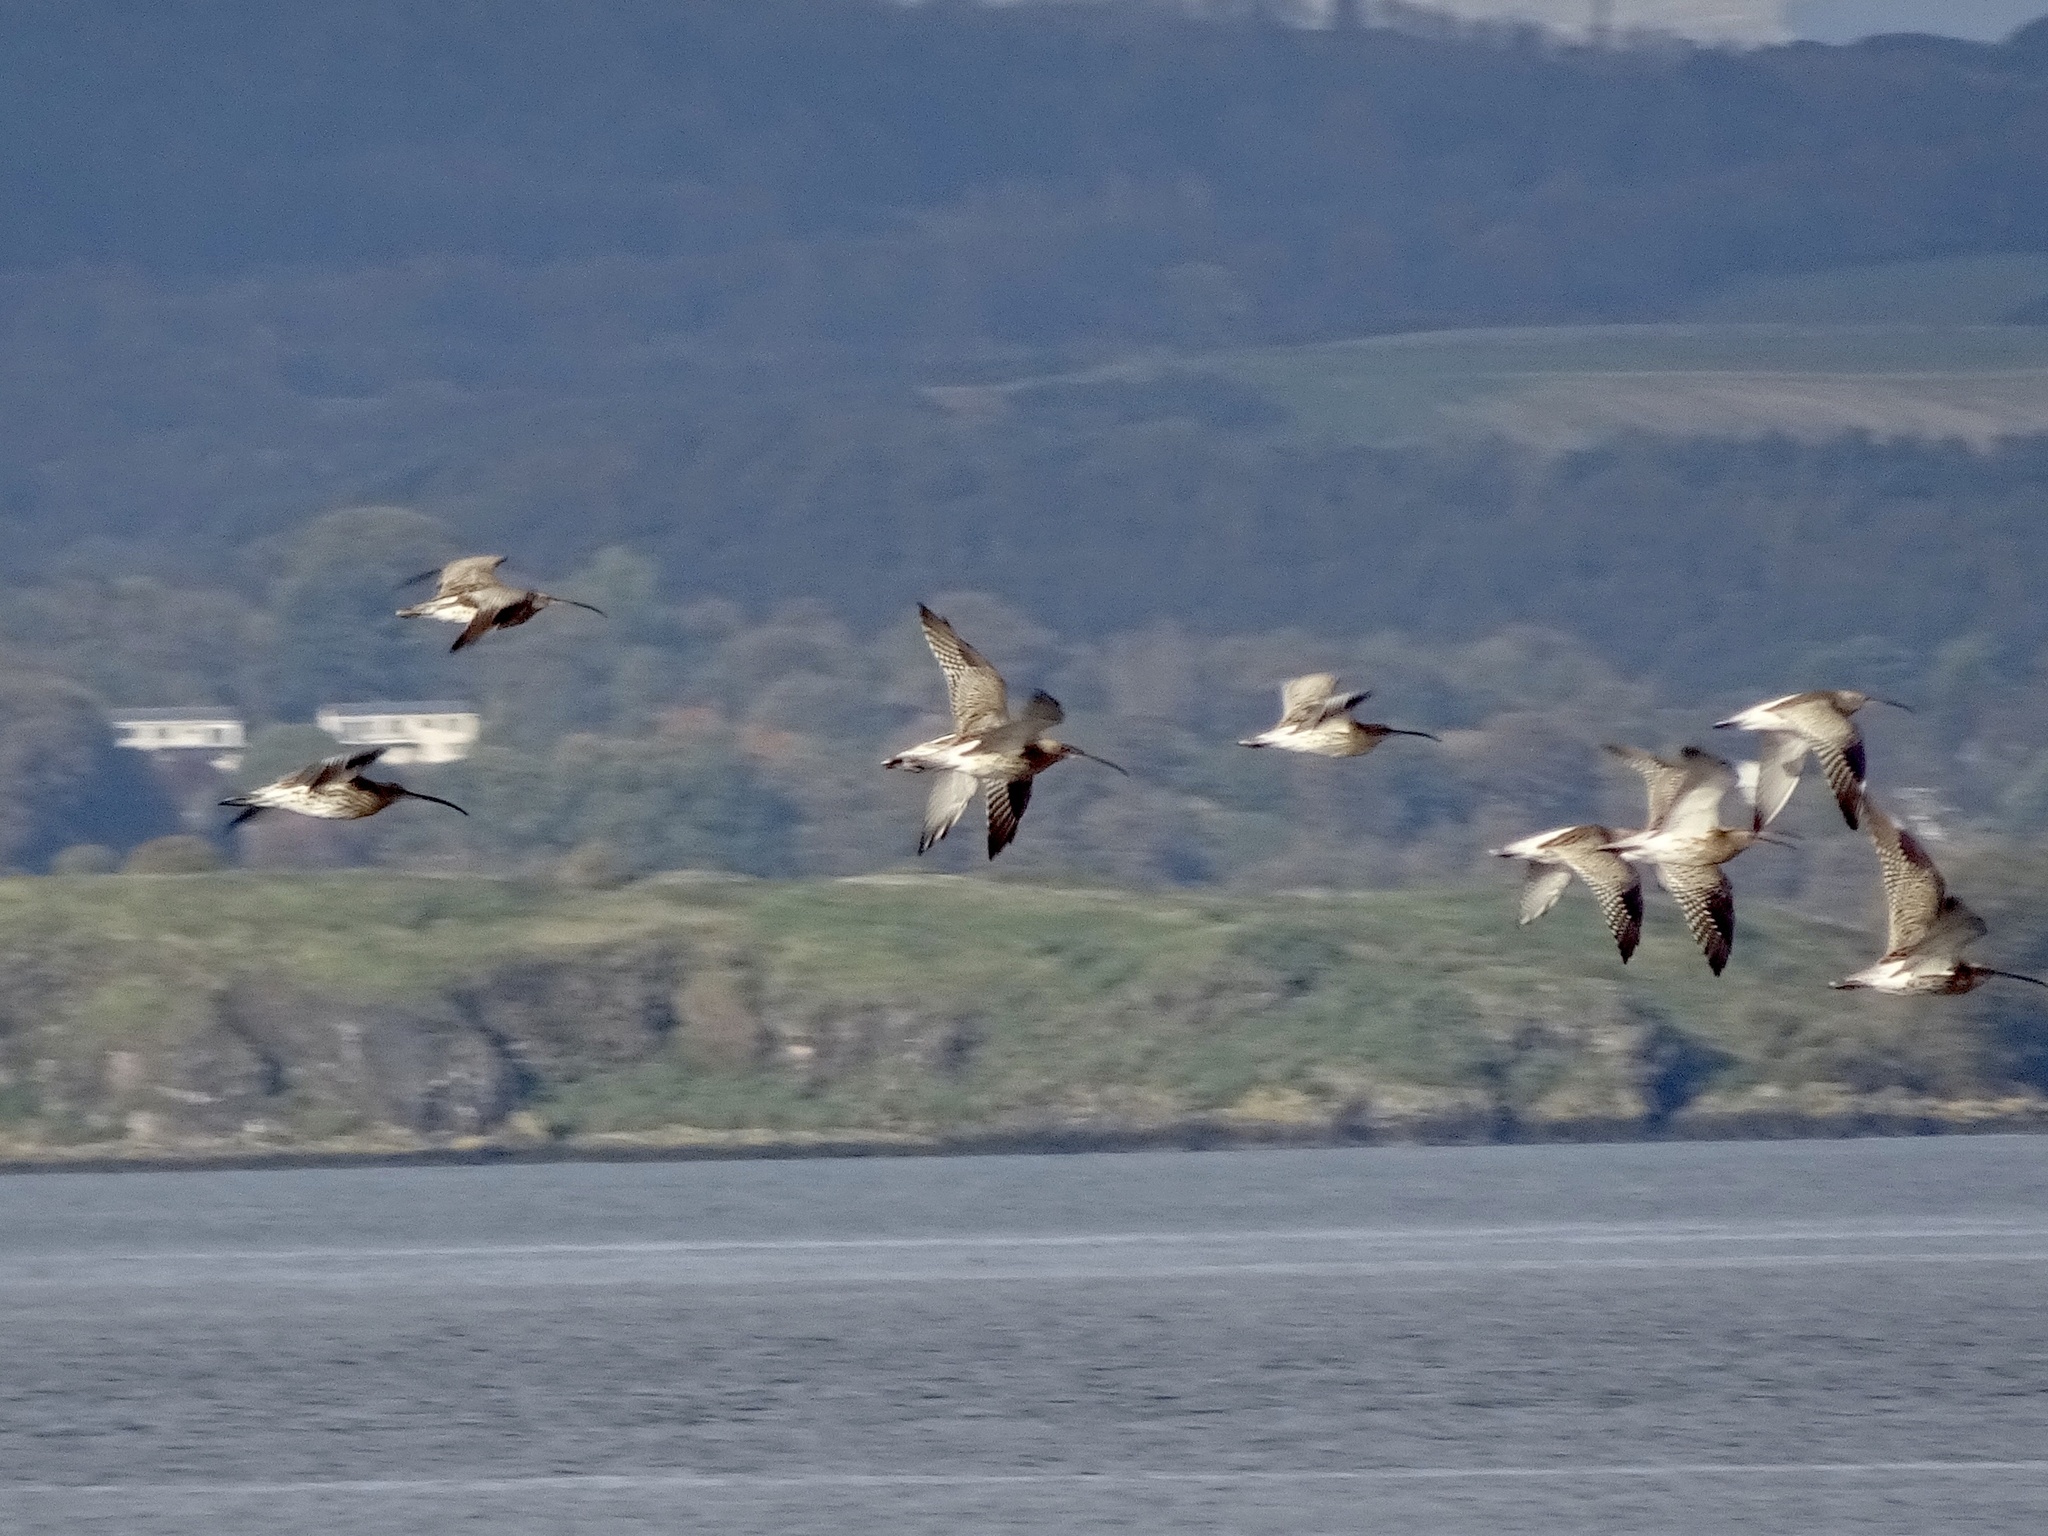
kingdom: Animalia
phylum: Chordata
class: Aves
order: Charadriiformes
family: Scolopacidae
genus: Numenius
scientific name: Numenius arquata
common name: Eurasian curlew
